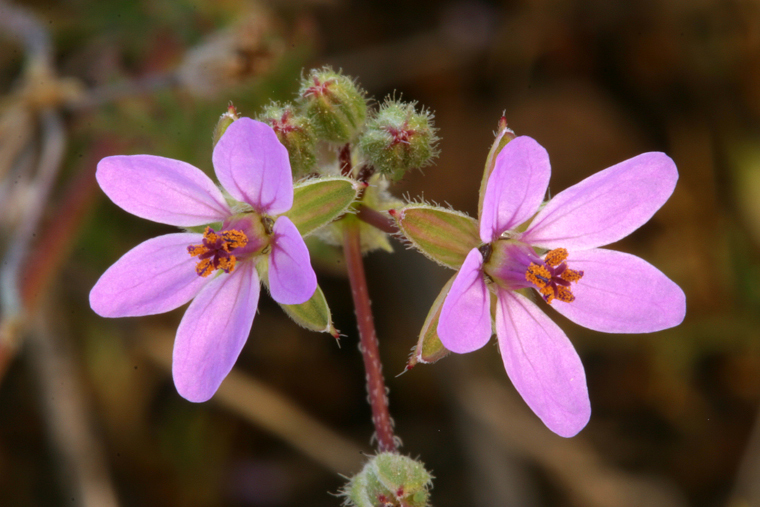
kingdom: Plantae
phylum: Tracheophyta
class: Magnoliopsida
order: Geraniales
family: Geraniaceae
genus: Erodium
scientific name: Erodium cicutarium
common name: Common stork's-bill
